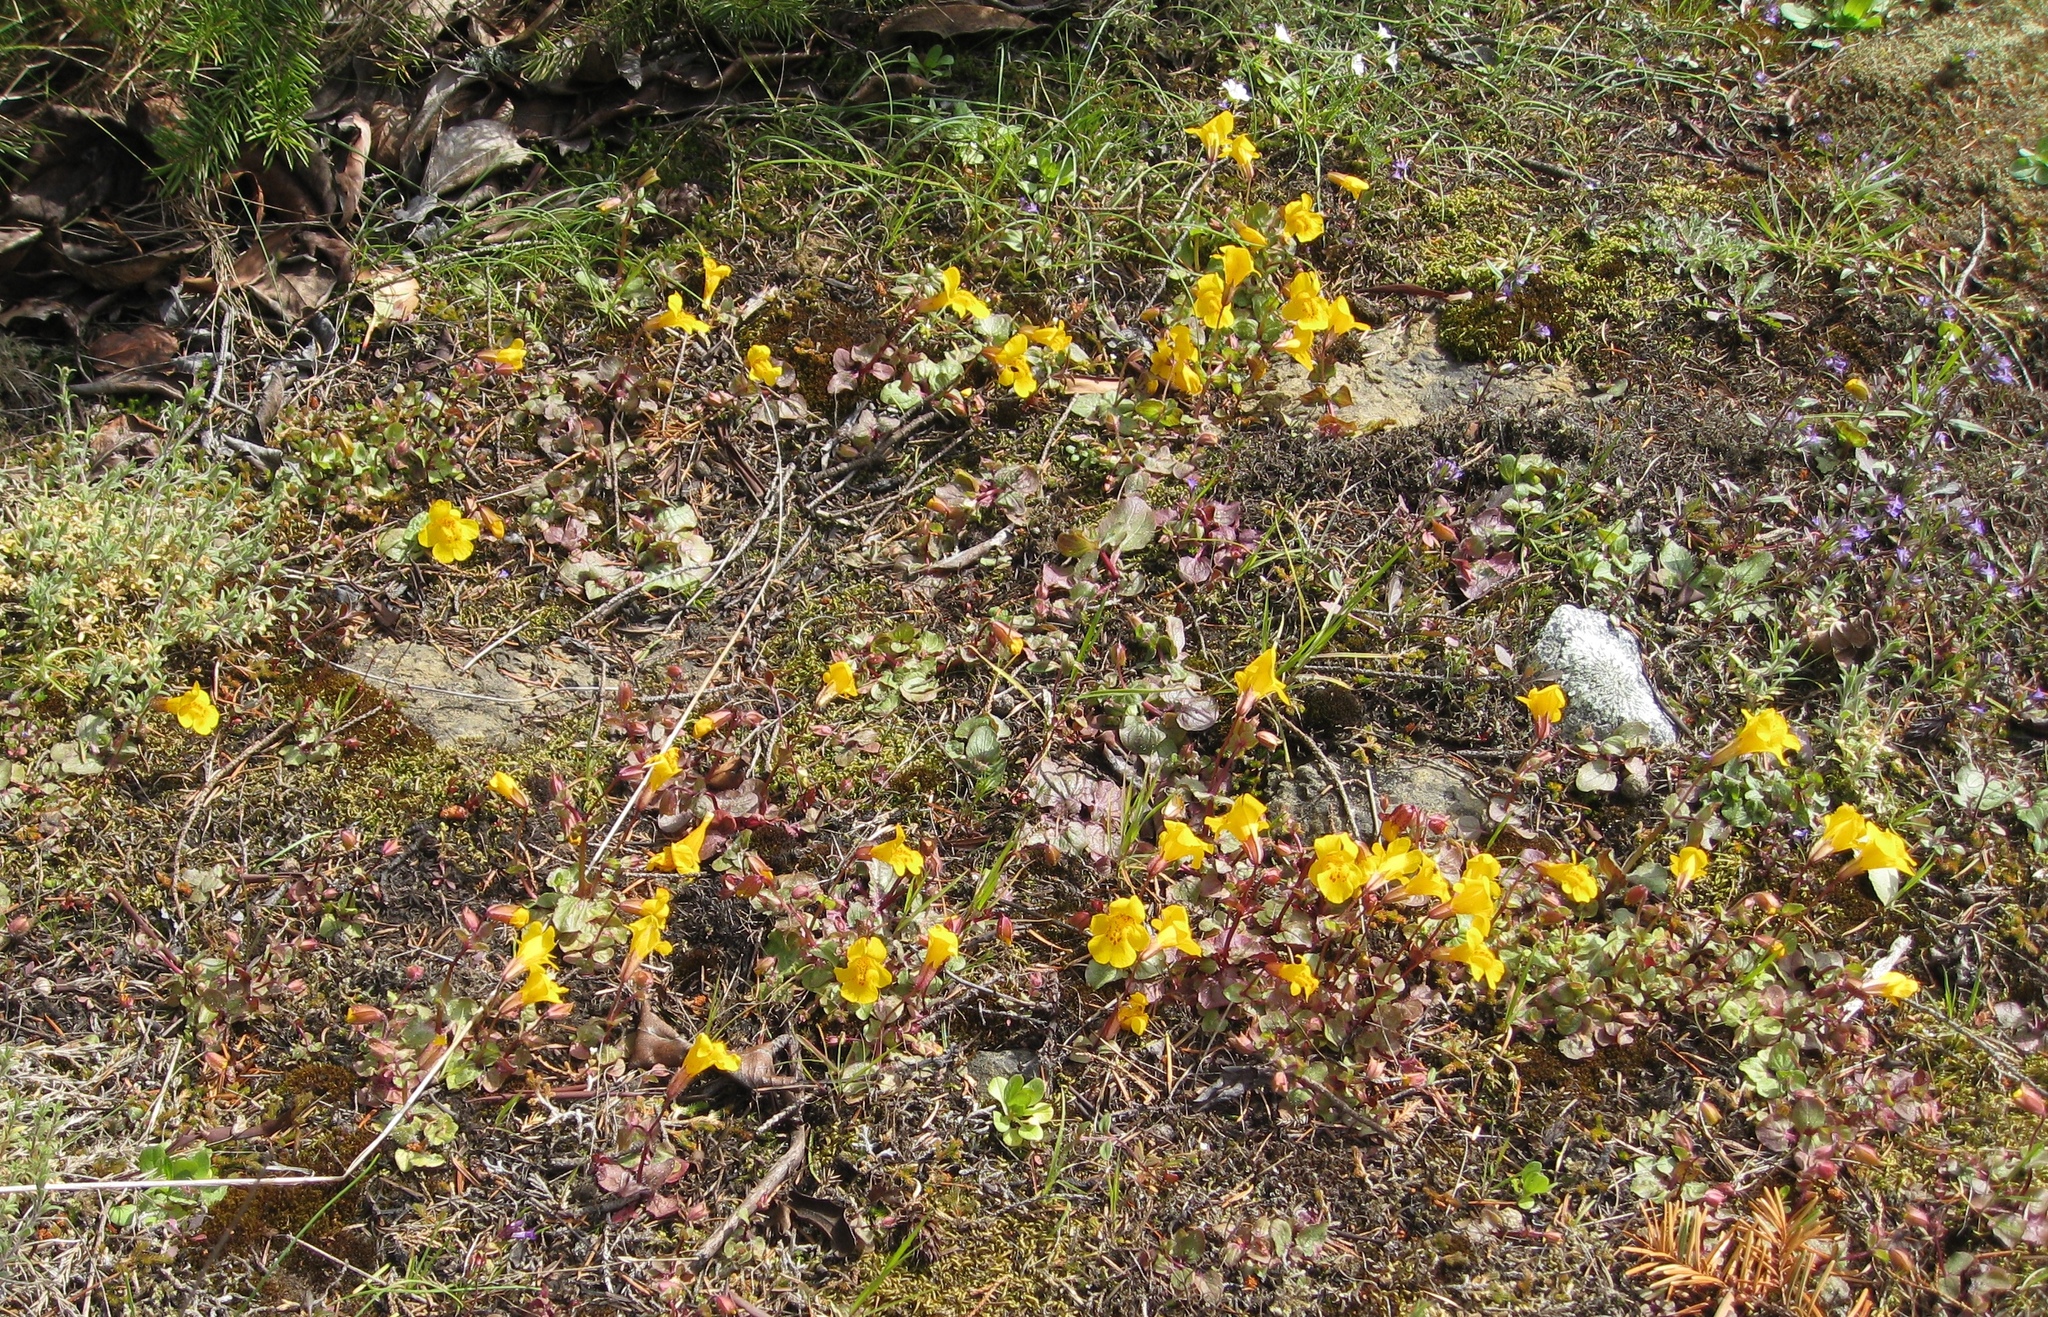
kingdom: Plantae
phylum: Tracheophyta
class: Magnoliopsida
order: Lamiales
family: Phrymaceae
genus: Erythranthe
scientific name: Erythranthe guttata
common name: Monkeyflower
